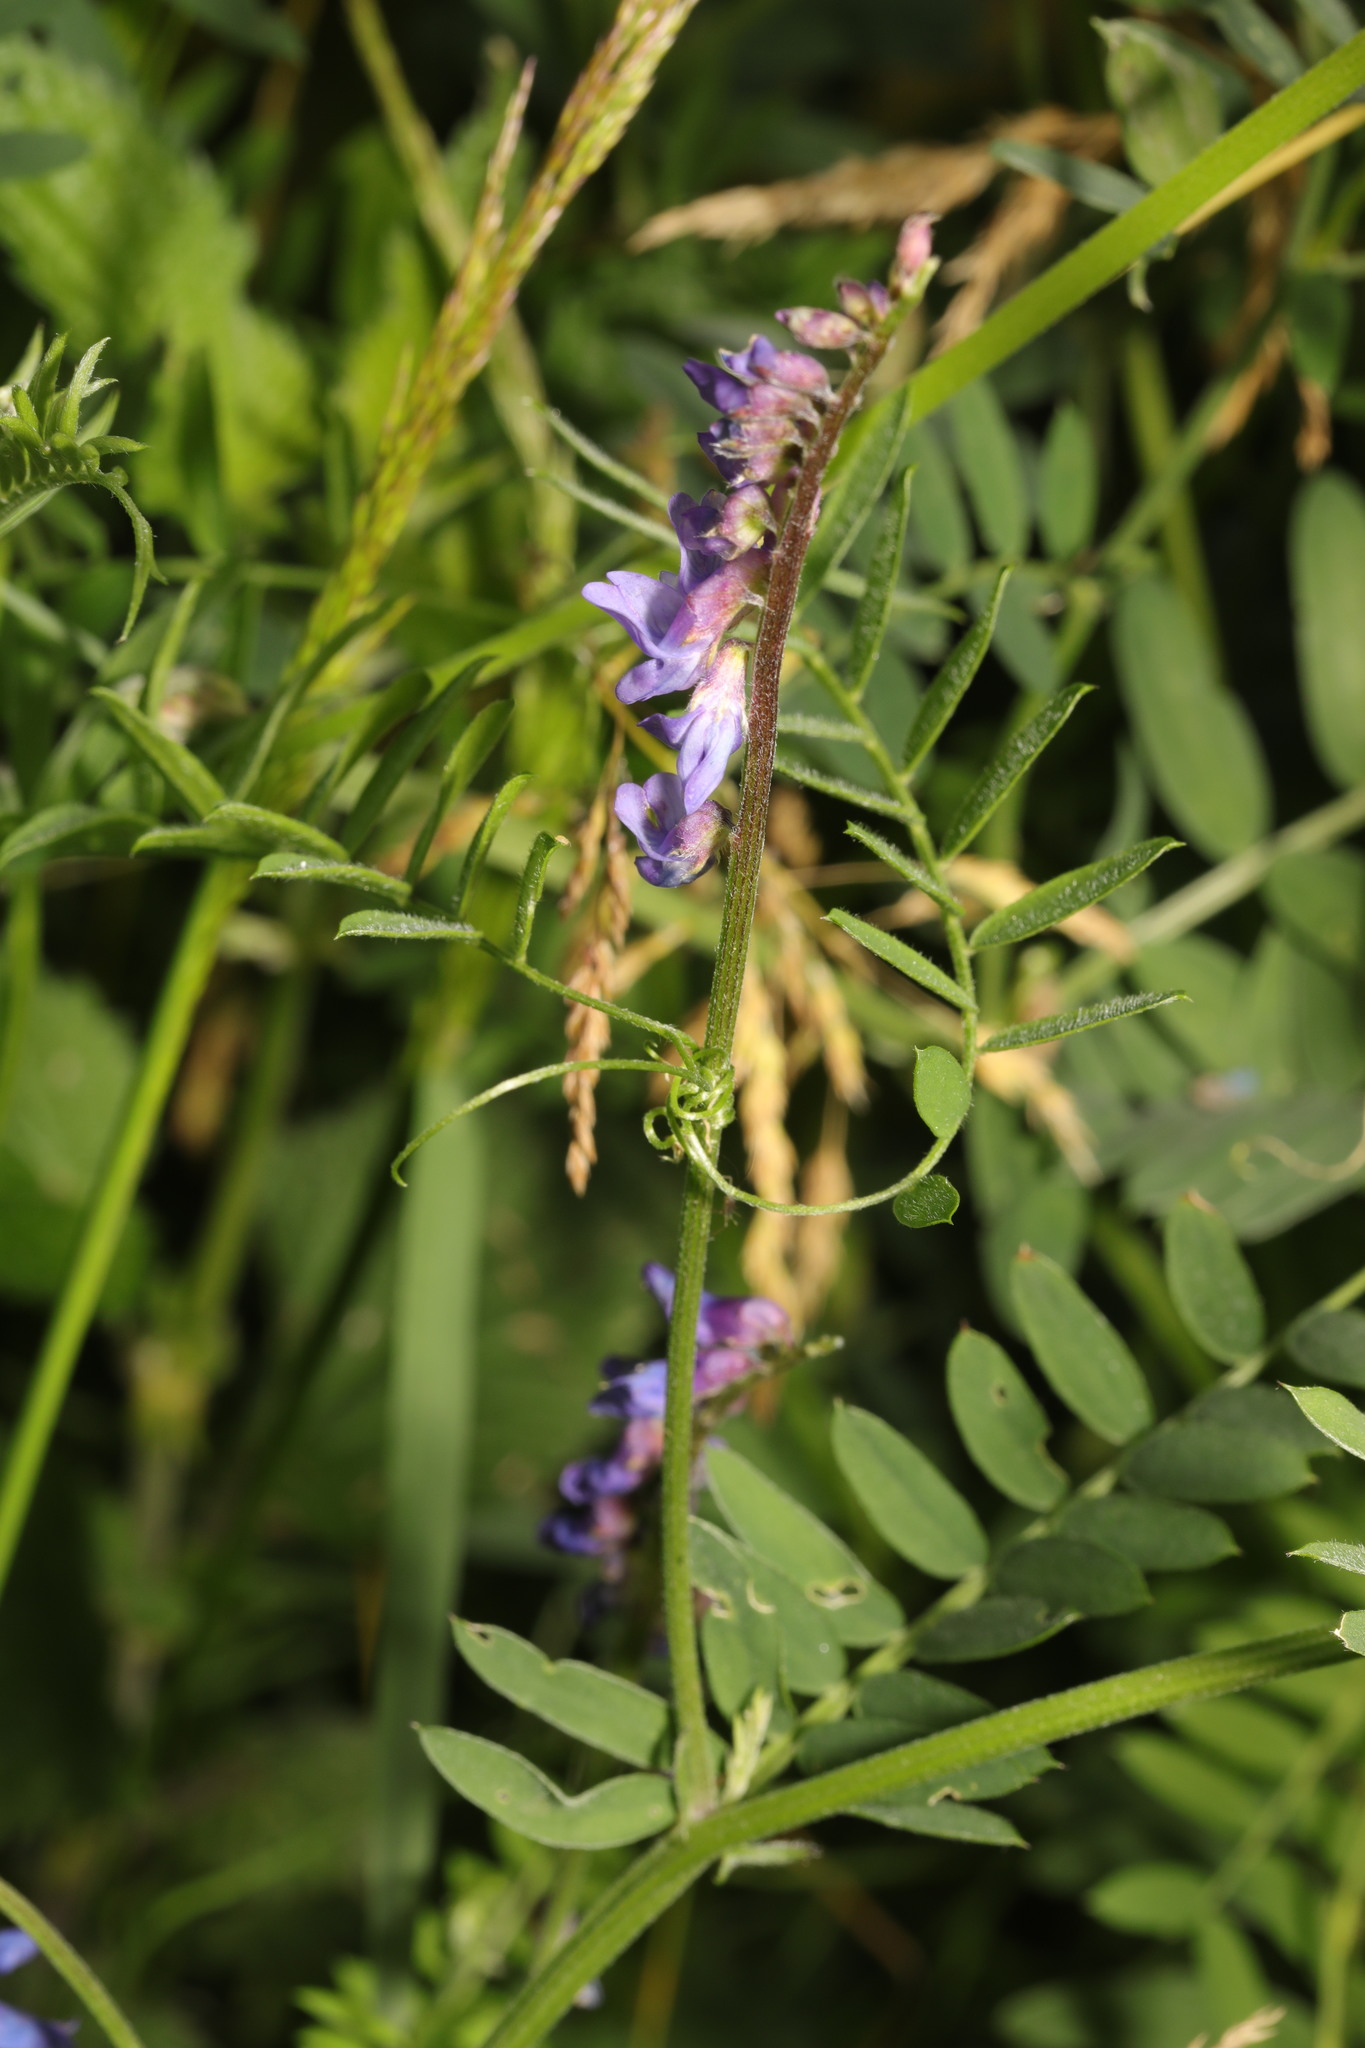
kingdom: Plantae
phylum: Tracheophyta
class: Magnoliopsida
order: Fabales
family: Fabaceae
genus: Vicia
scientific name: Vicia cracca
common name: Bird vetch
